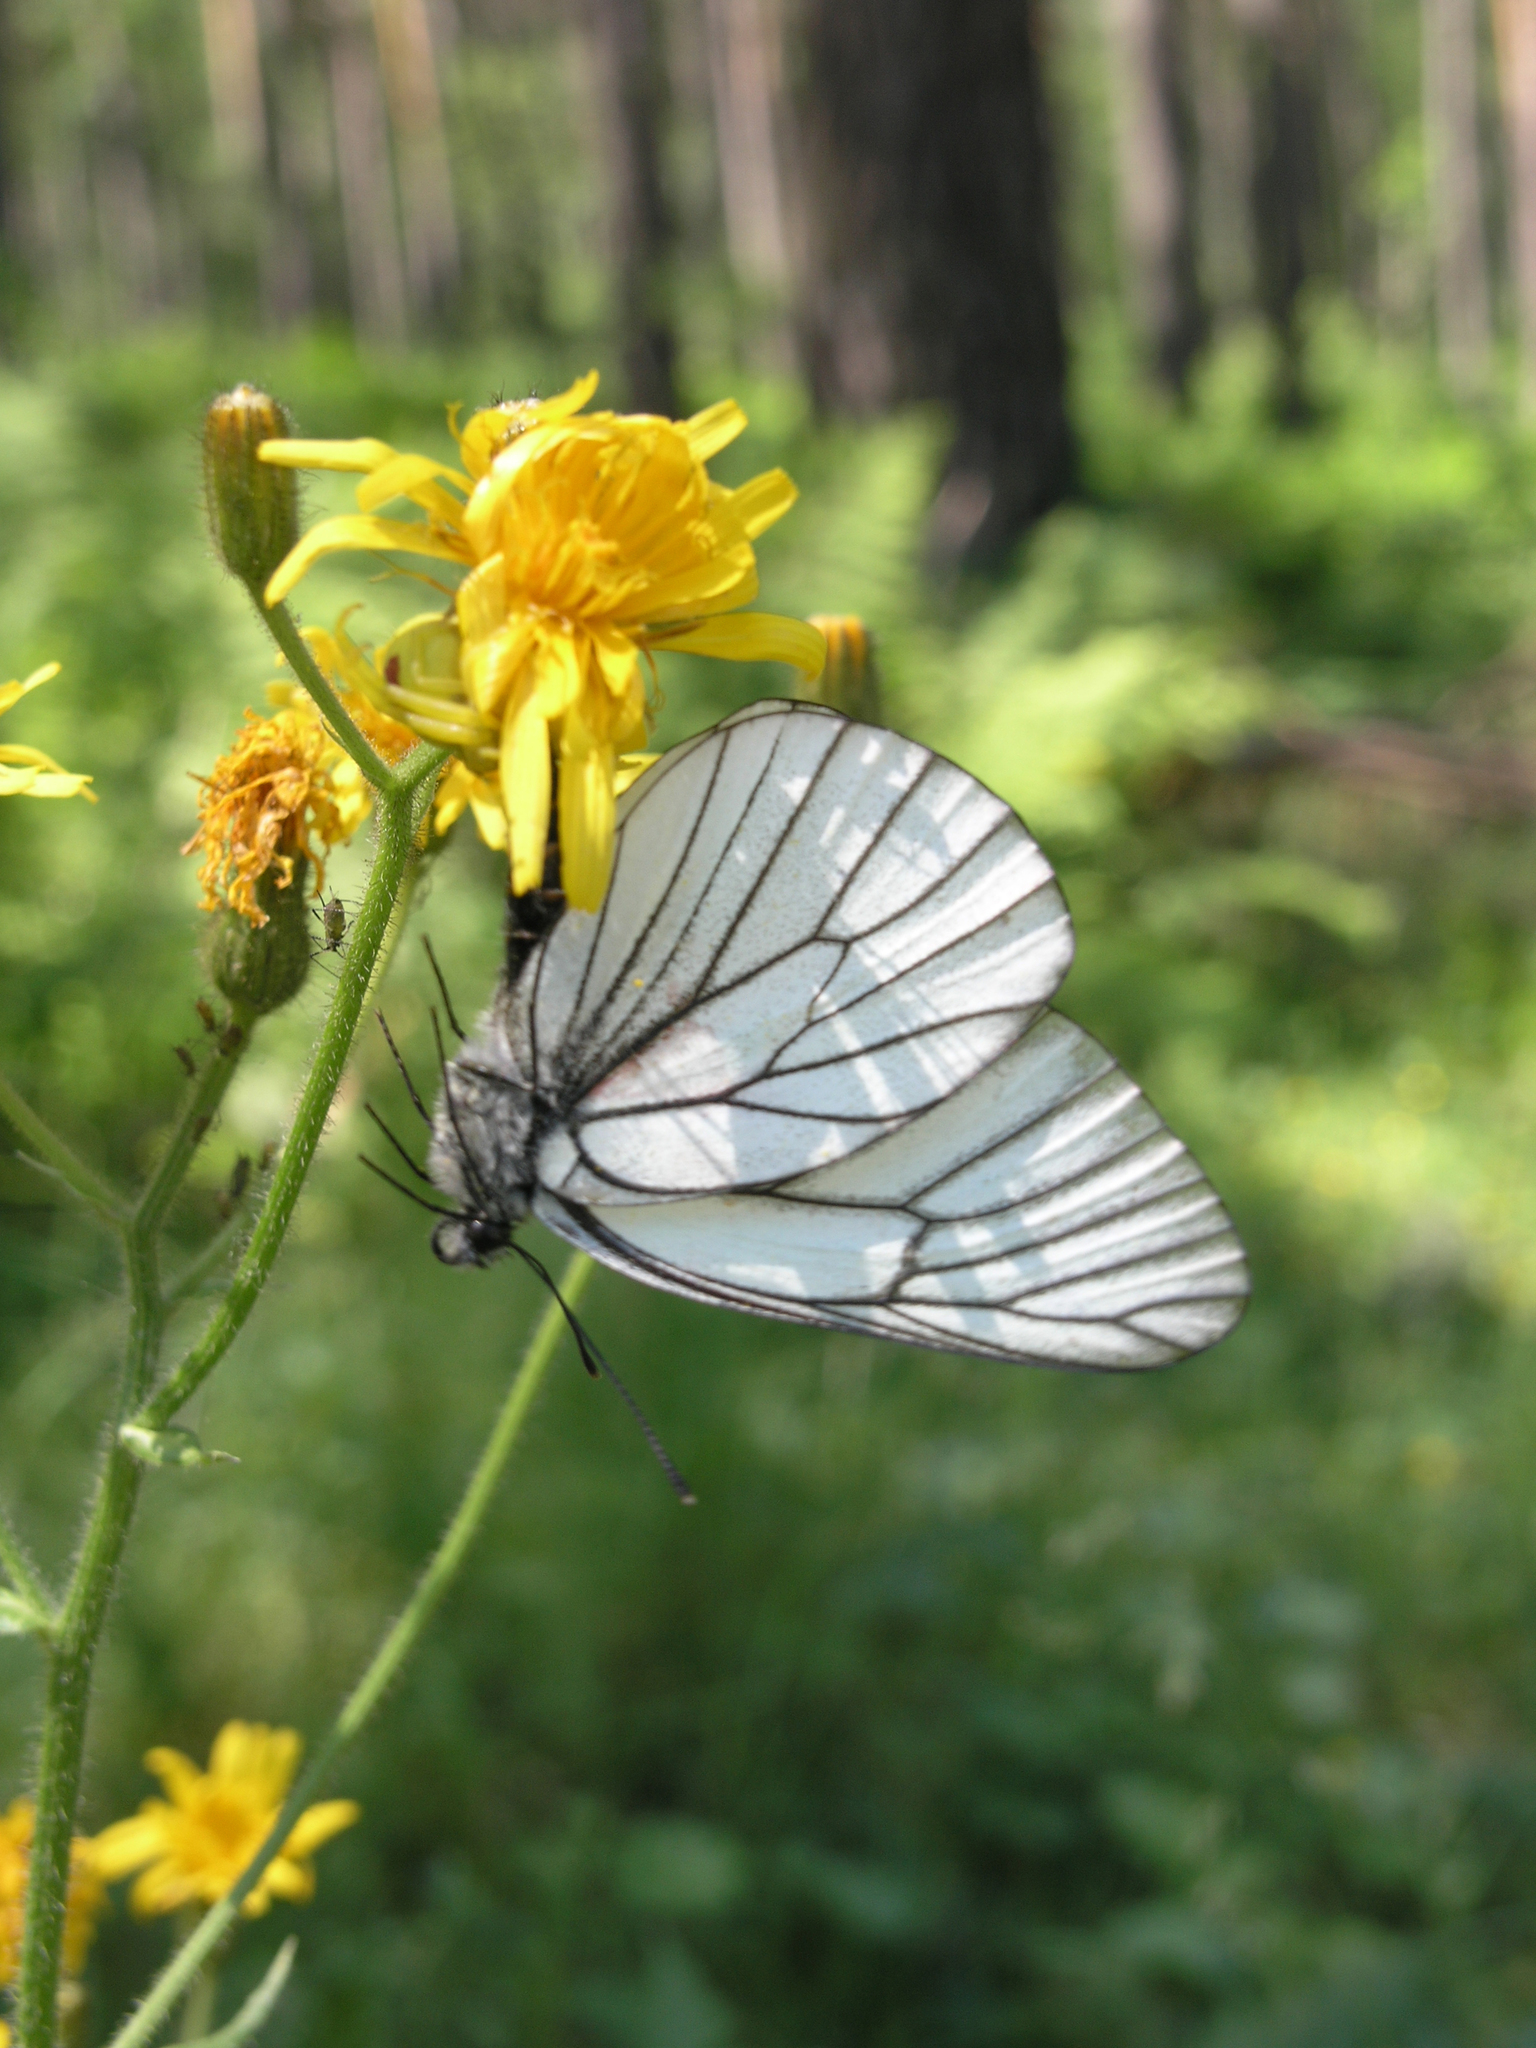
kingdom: Animalia
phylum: Arthropoda
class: Insecta
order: Lepidoptera
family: Pieridae
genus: Aporia
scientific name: Aporia crataegi
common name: Black-veined white
